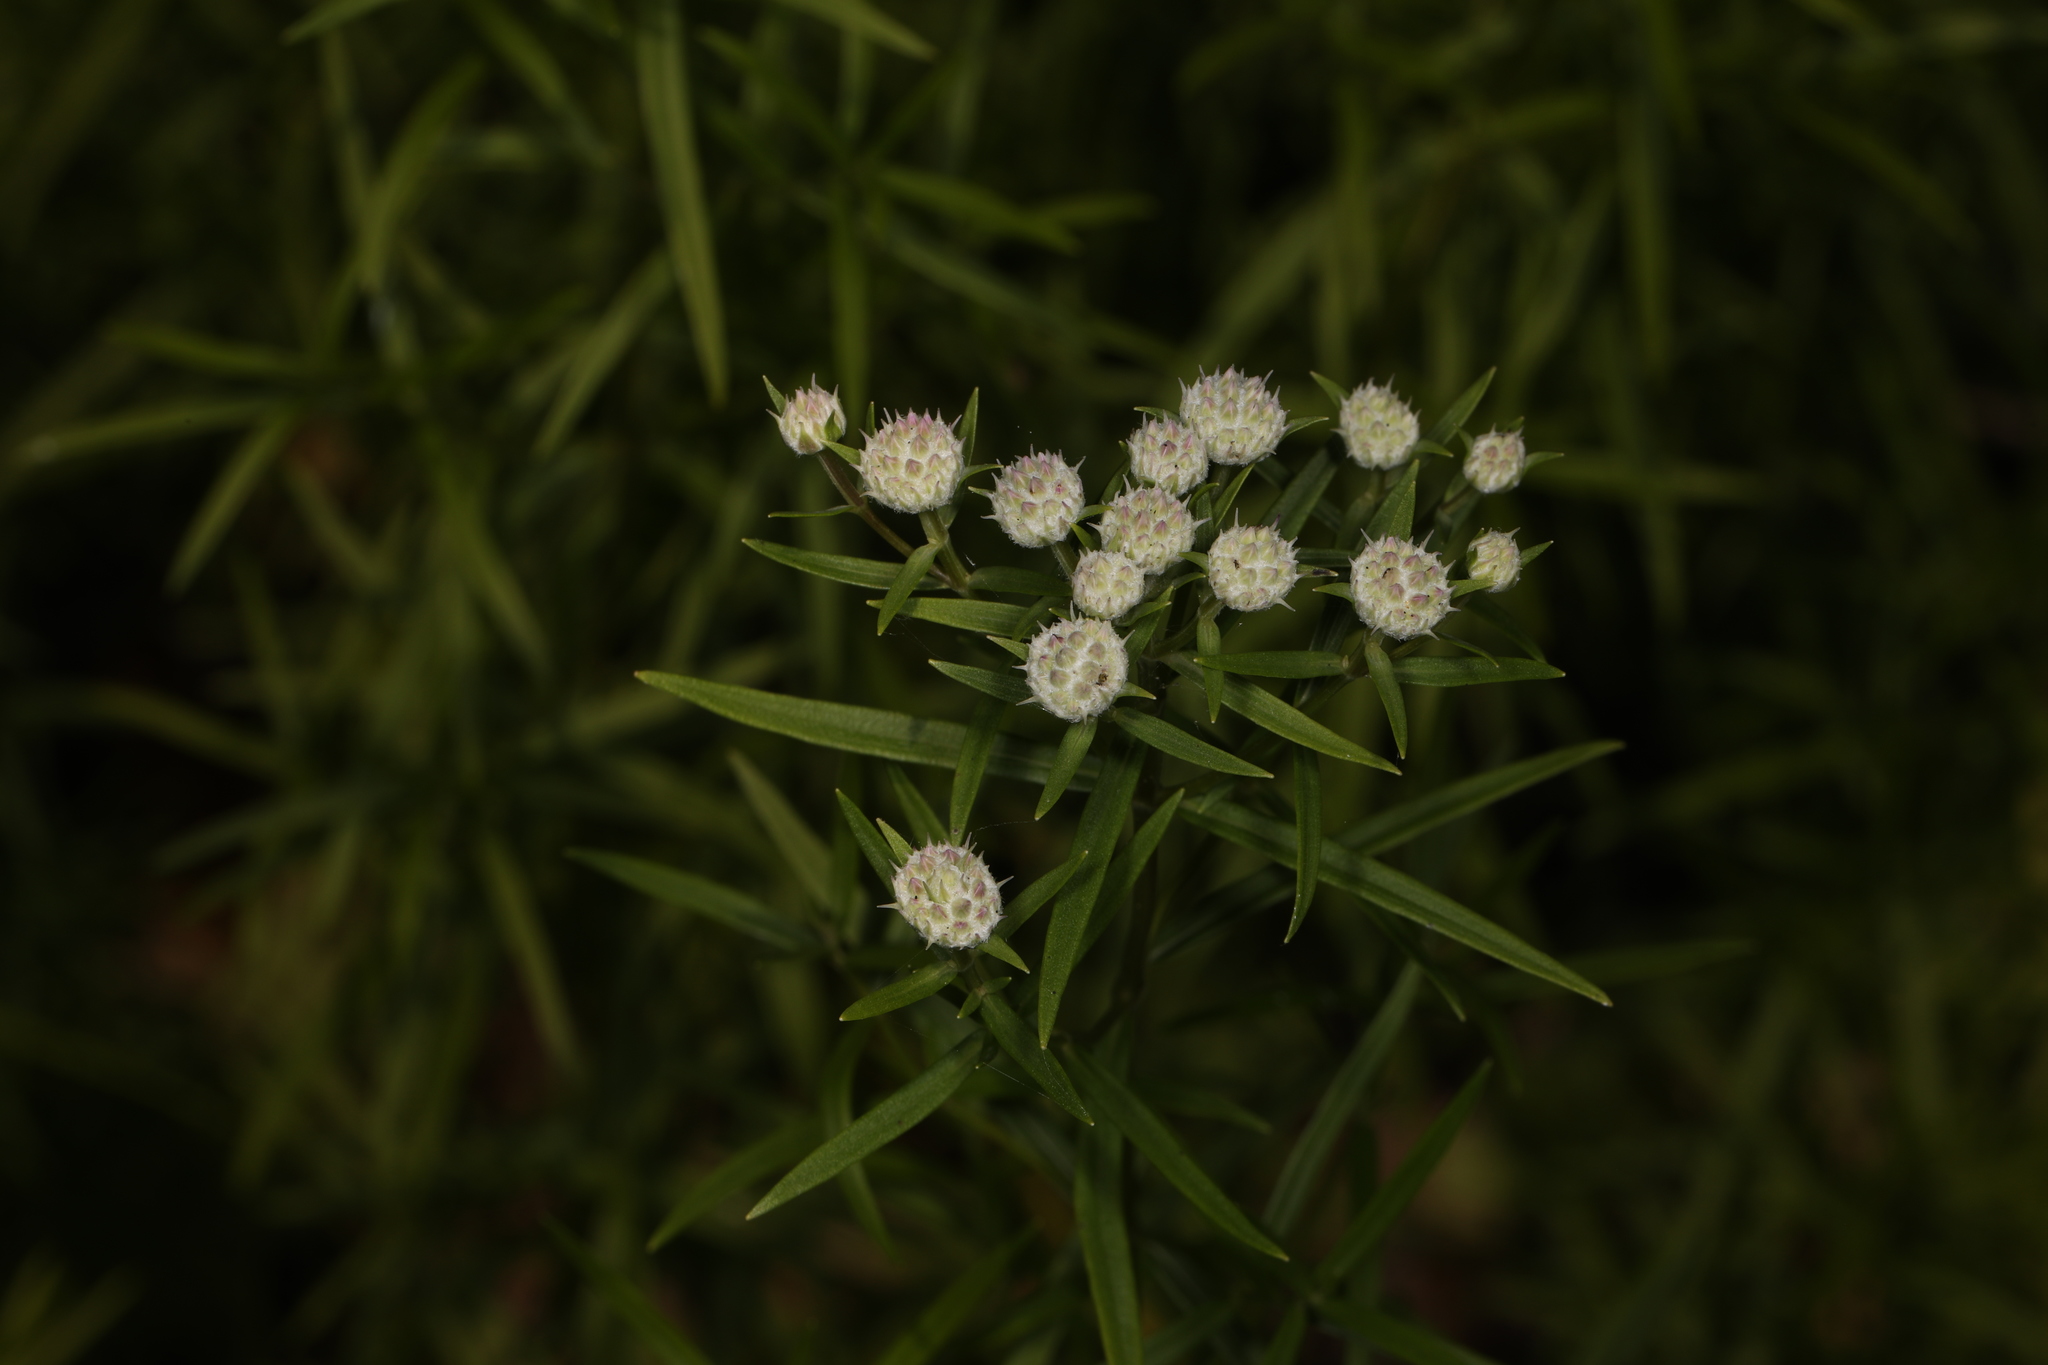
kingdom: Plantae
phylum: Tracheophyta
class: Magnoliopsida
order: Lamiales
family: Lamiaceae
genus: Pycnanthemum
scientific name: Pycnanthemum tenuifolium
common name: Narrow-leaf mountain-mint
